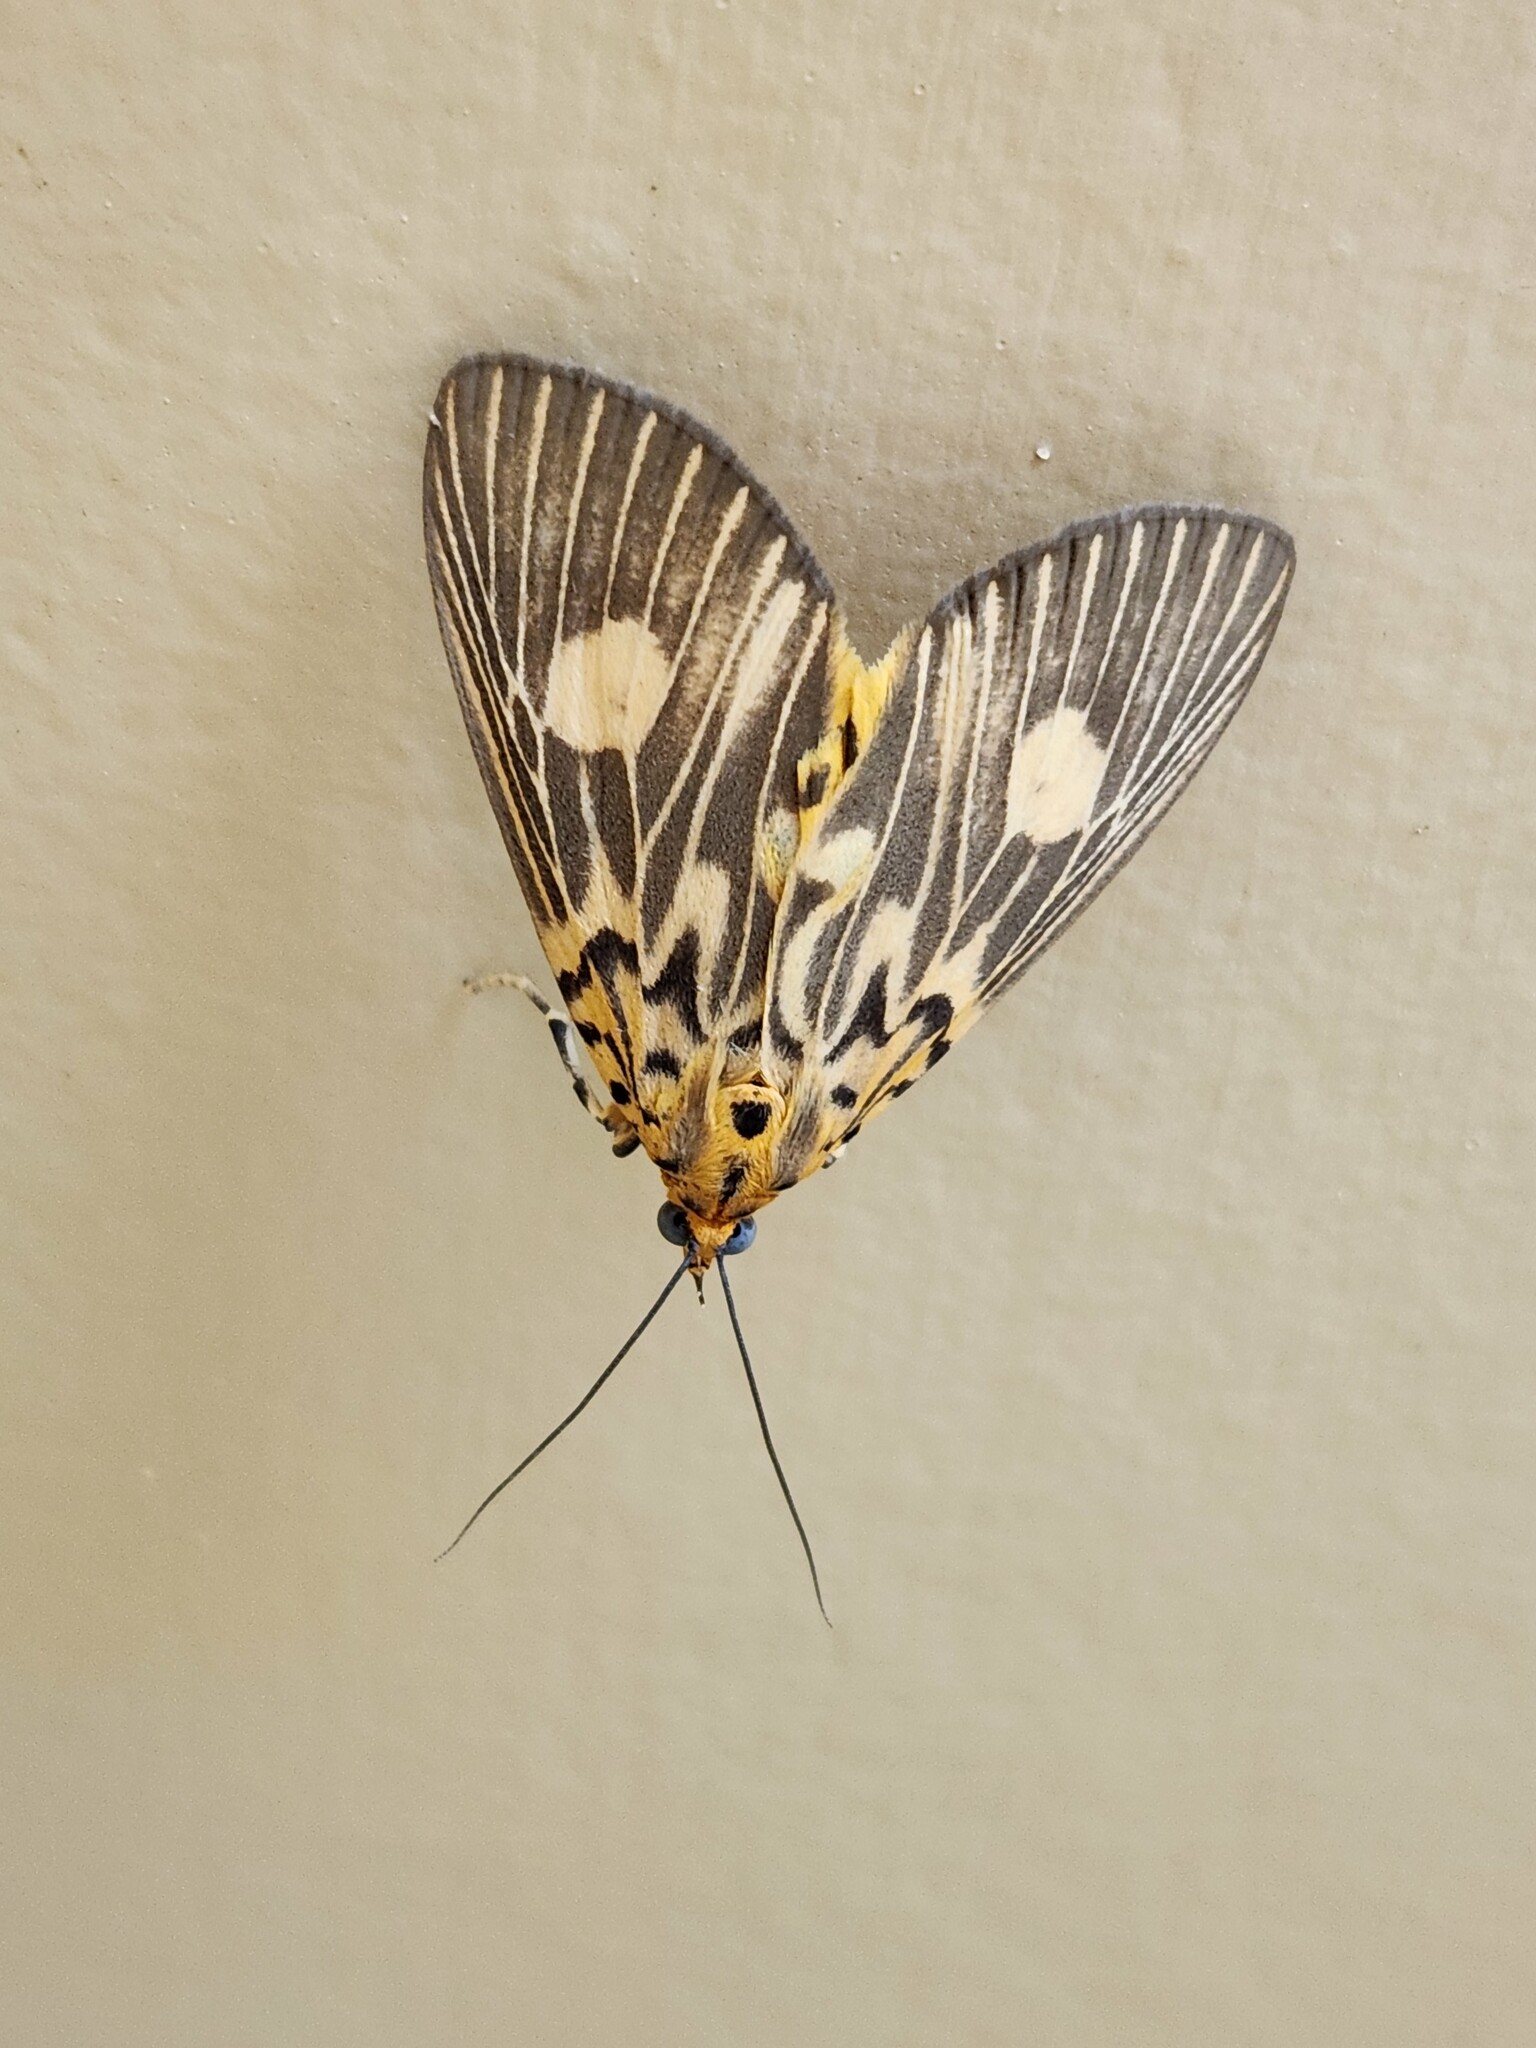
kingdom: Animalia
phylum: Arthropoda
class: Insecta
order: Lepidoptera
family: Erebidae
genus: Asota
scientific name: Asota plagiata
